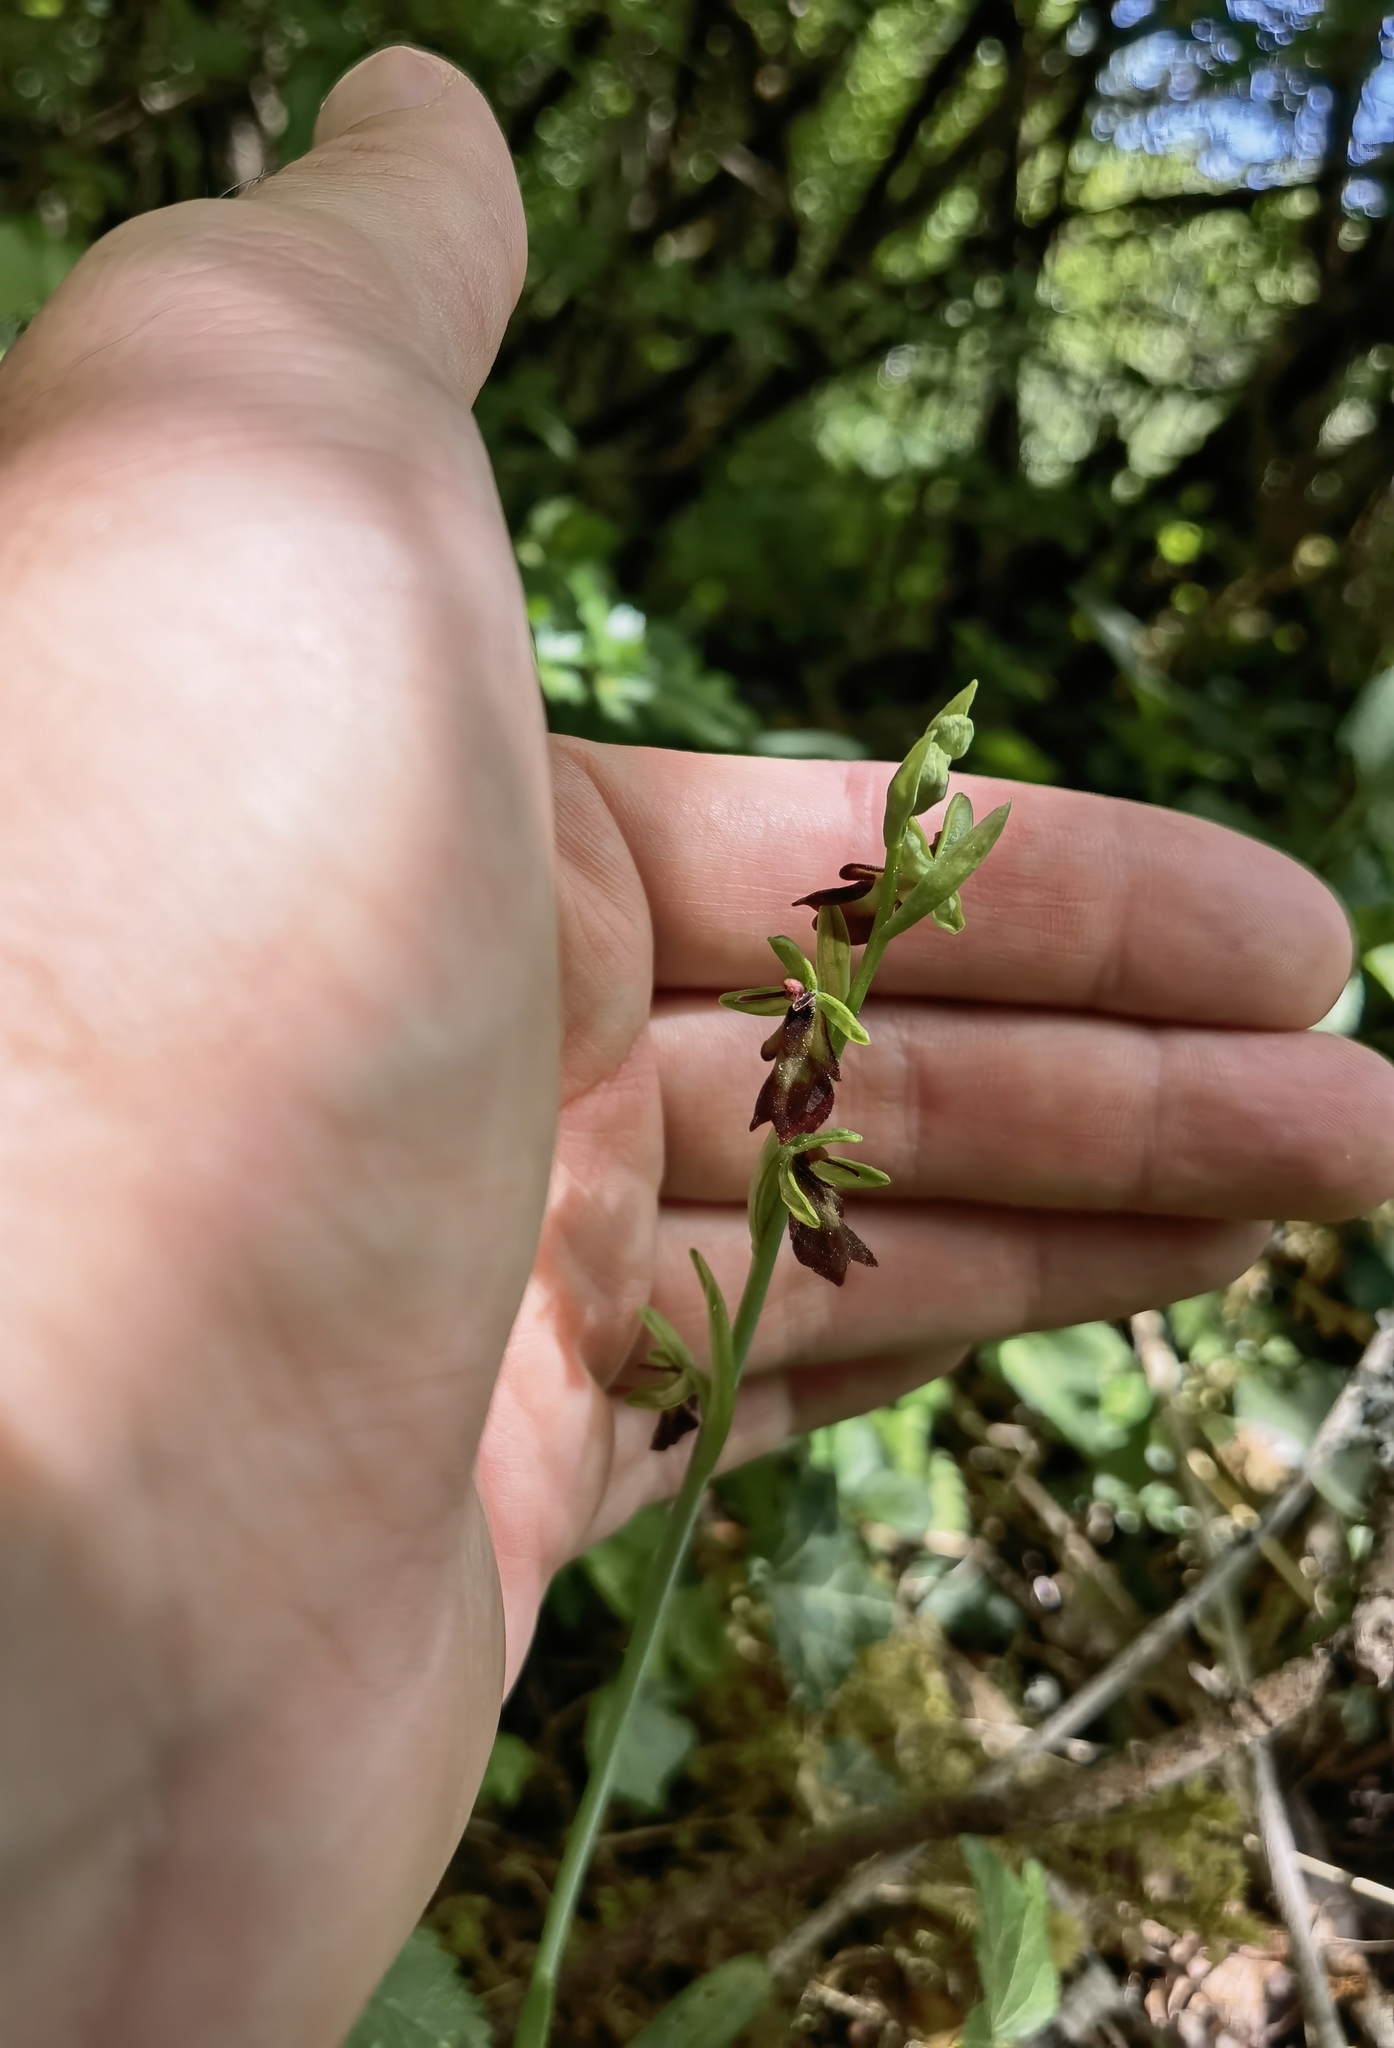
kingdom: Plantae
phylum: Tracheophyta
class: Liliopsida
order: Asparagales
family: Orchidaceae
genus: Ophrys
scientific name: Ophrys insectifera
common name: Fly orchid
